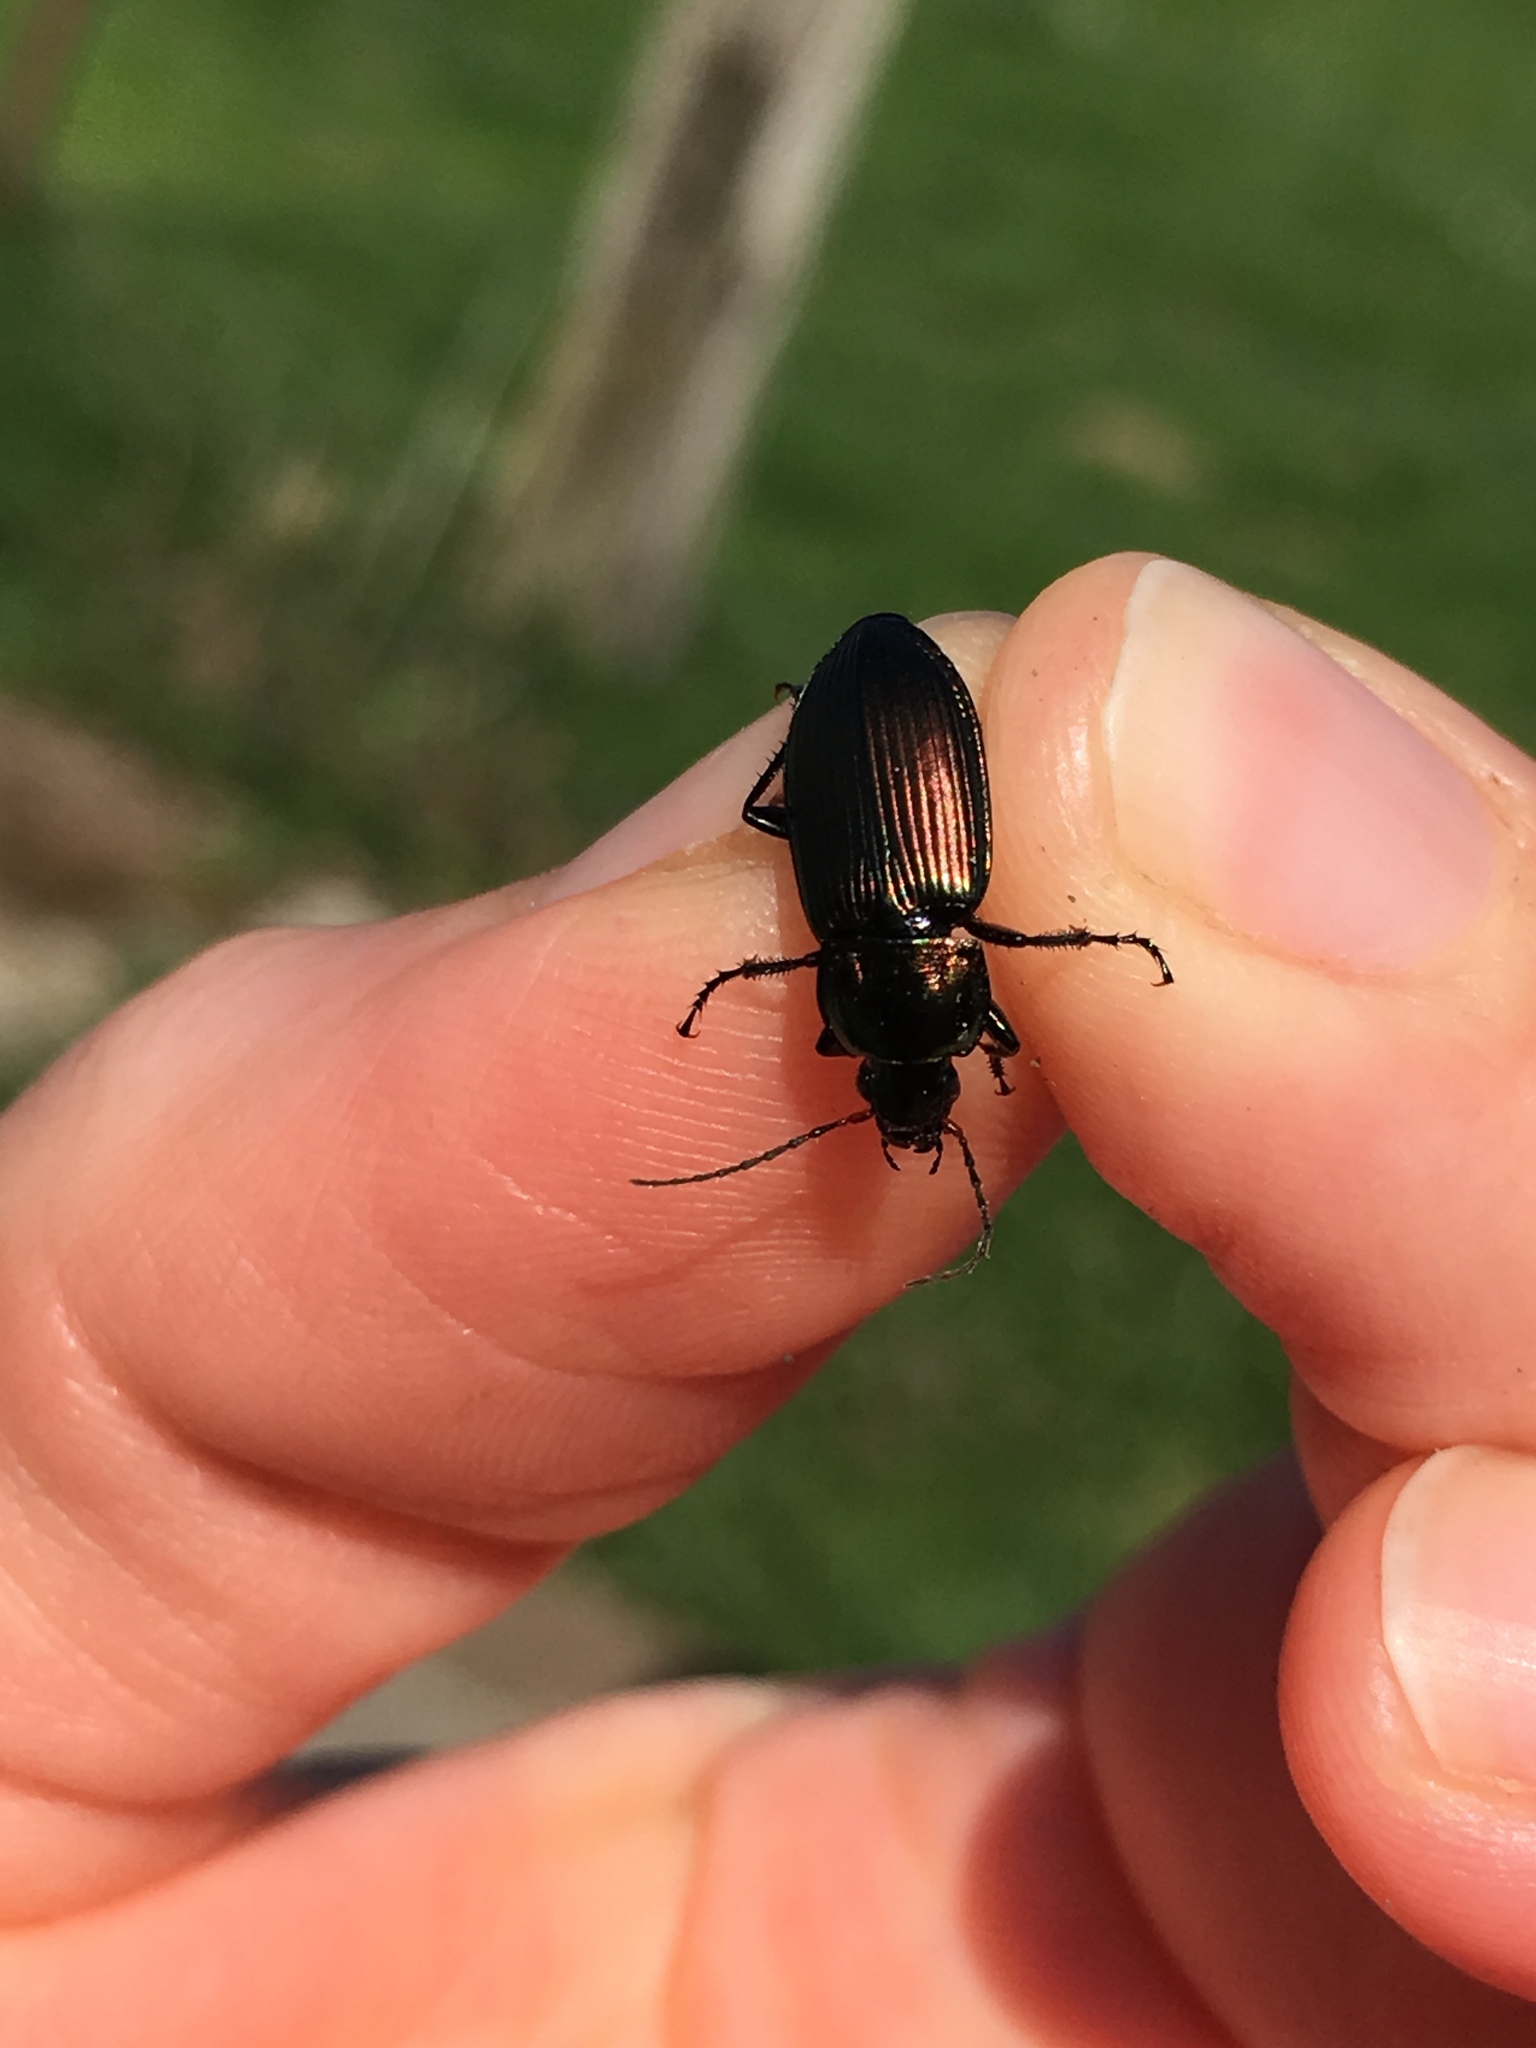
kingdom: Animalia
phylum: Arthropoda
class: Insecta
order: Coleoptera
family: Carabidae
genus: Poecilus
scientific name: Poecilus cupreus
